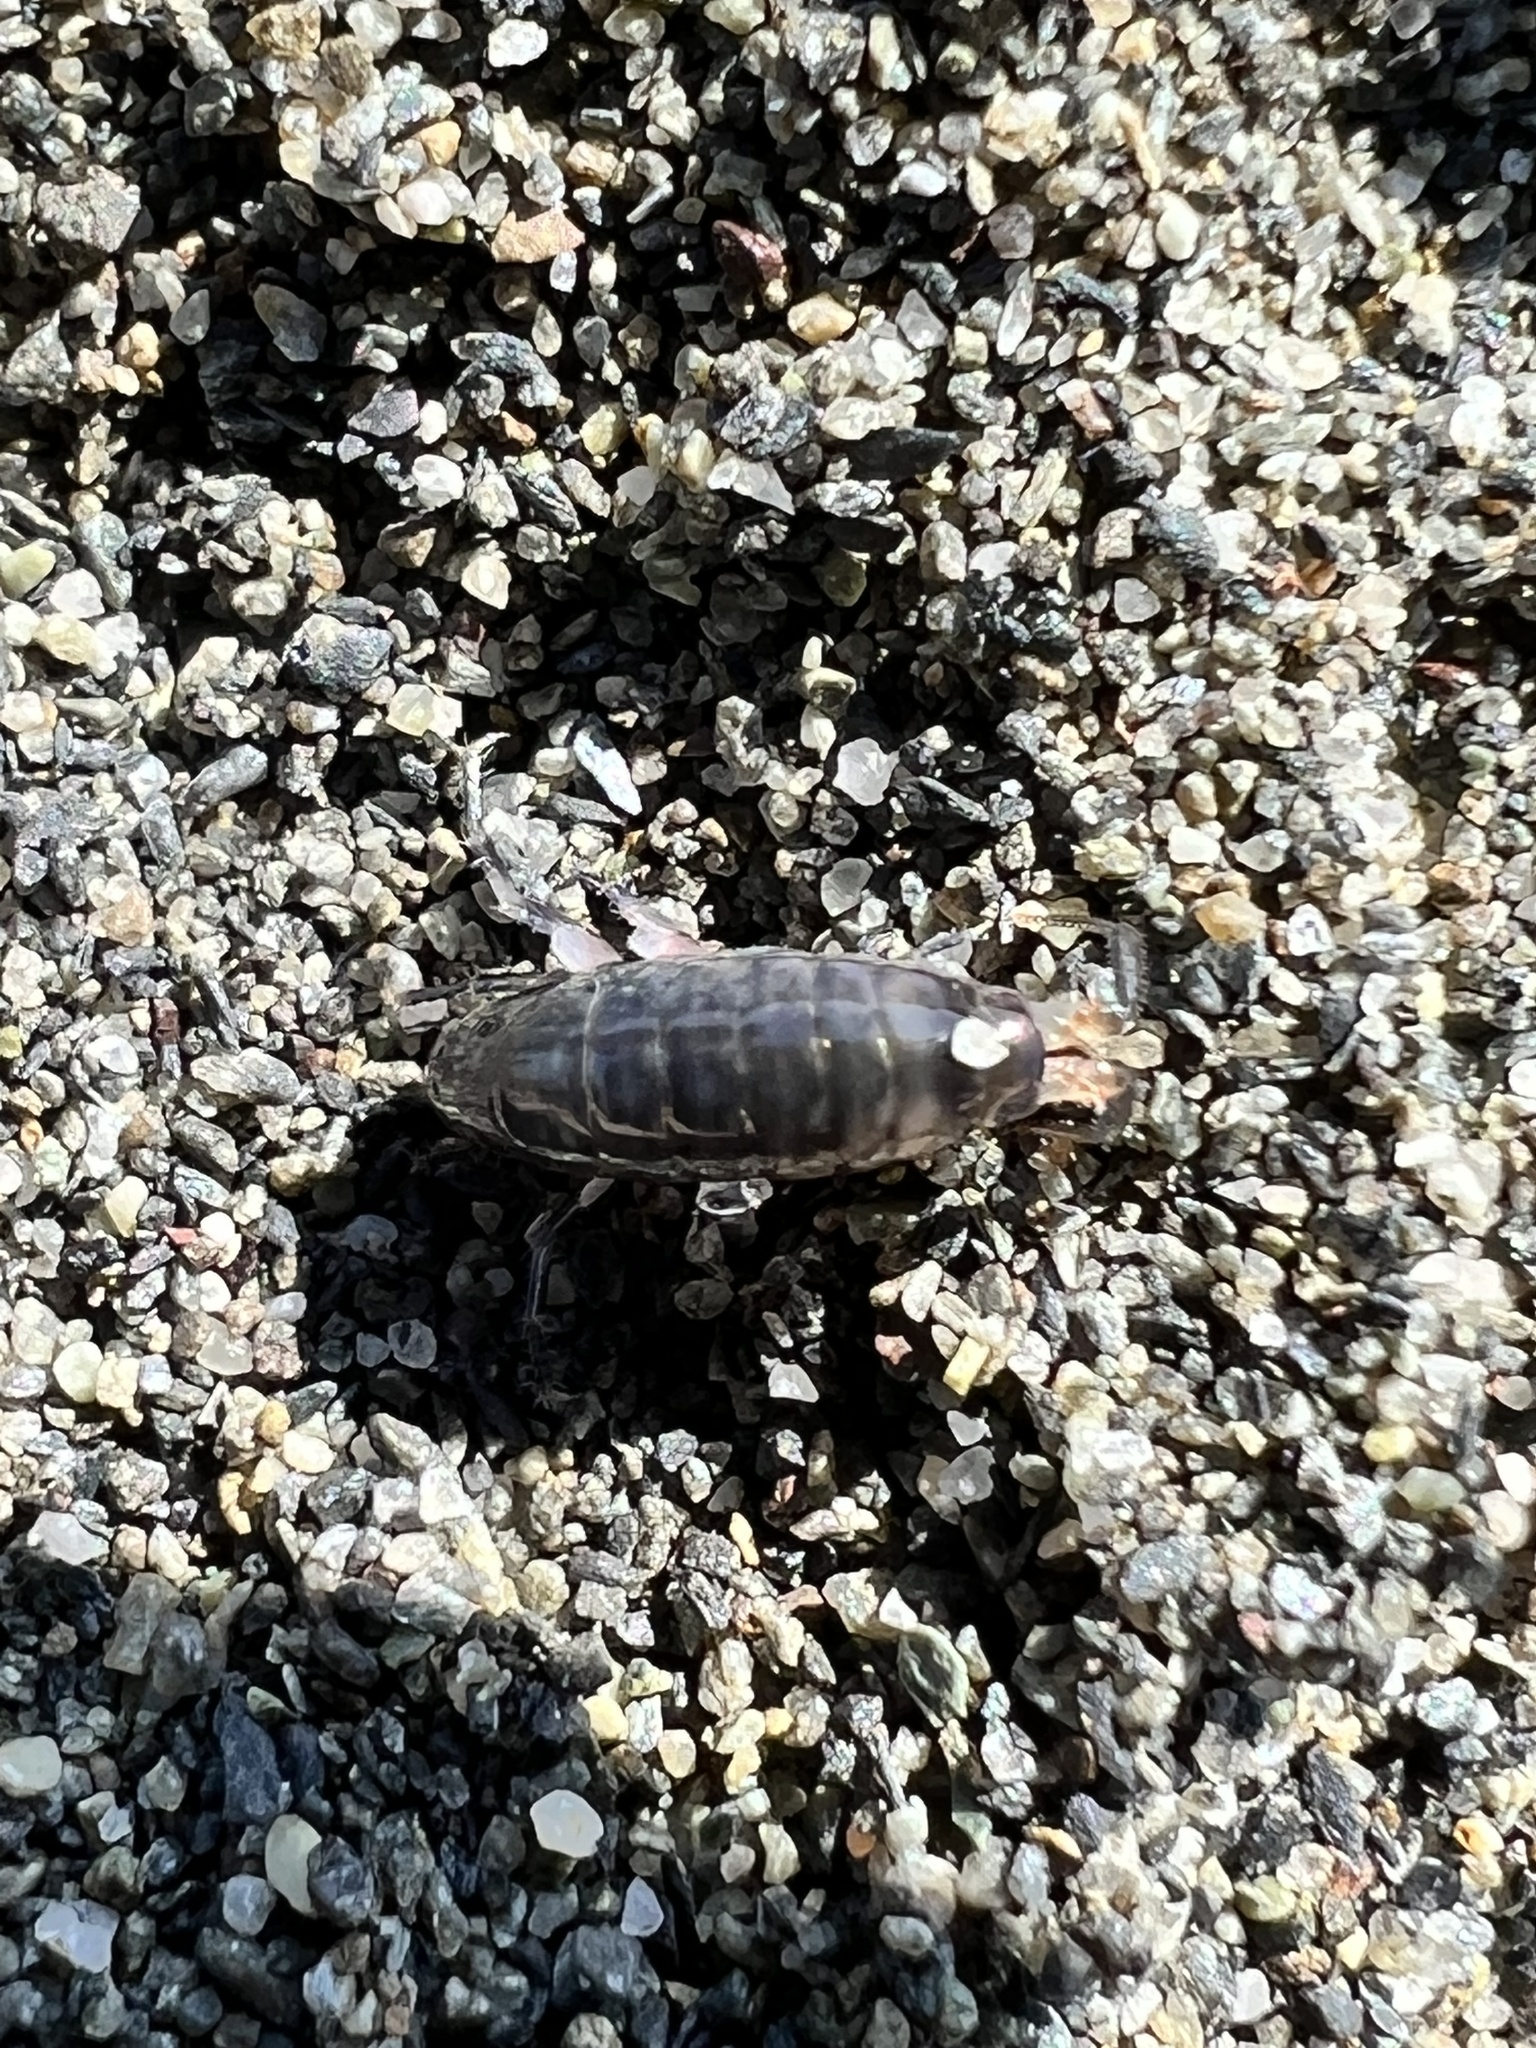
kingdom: Animalia
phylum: Arthropoda
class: Malacostraca
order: Amphipoda
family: Talitridae
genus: Megalorchestia
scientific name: Megalorchestia pugettensis
